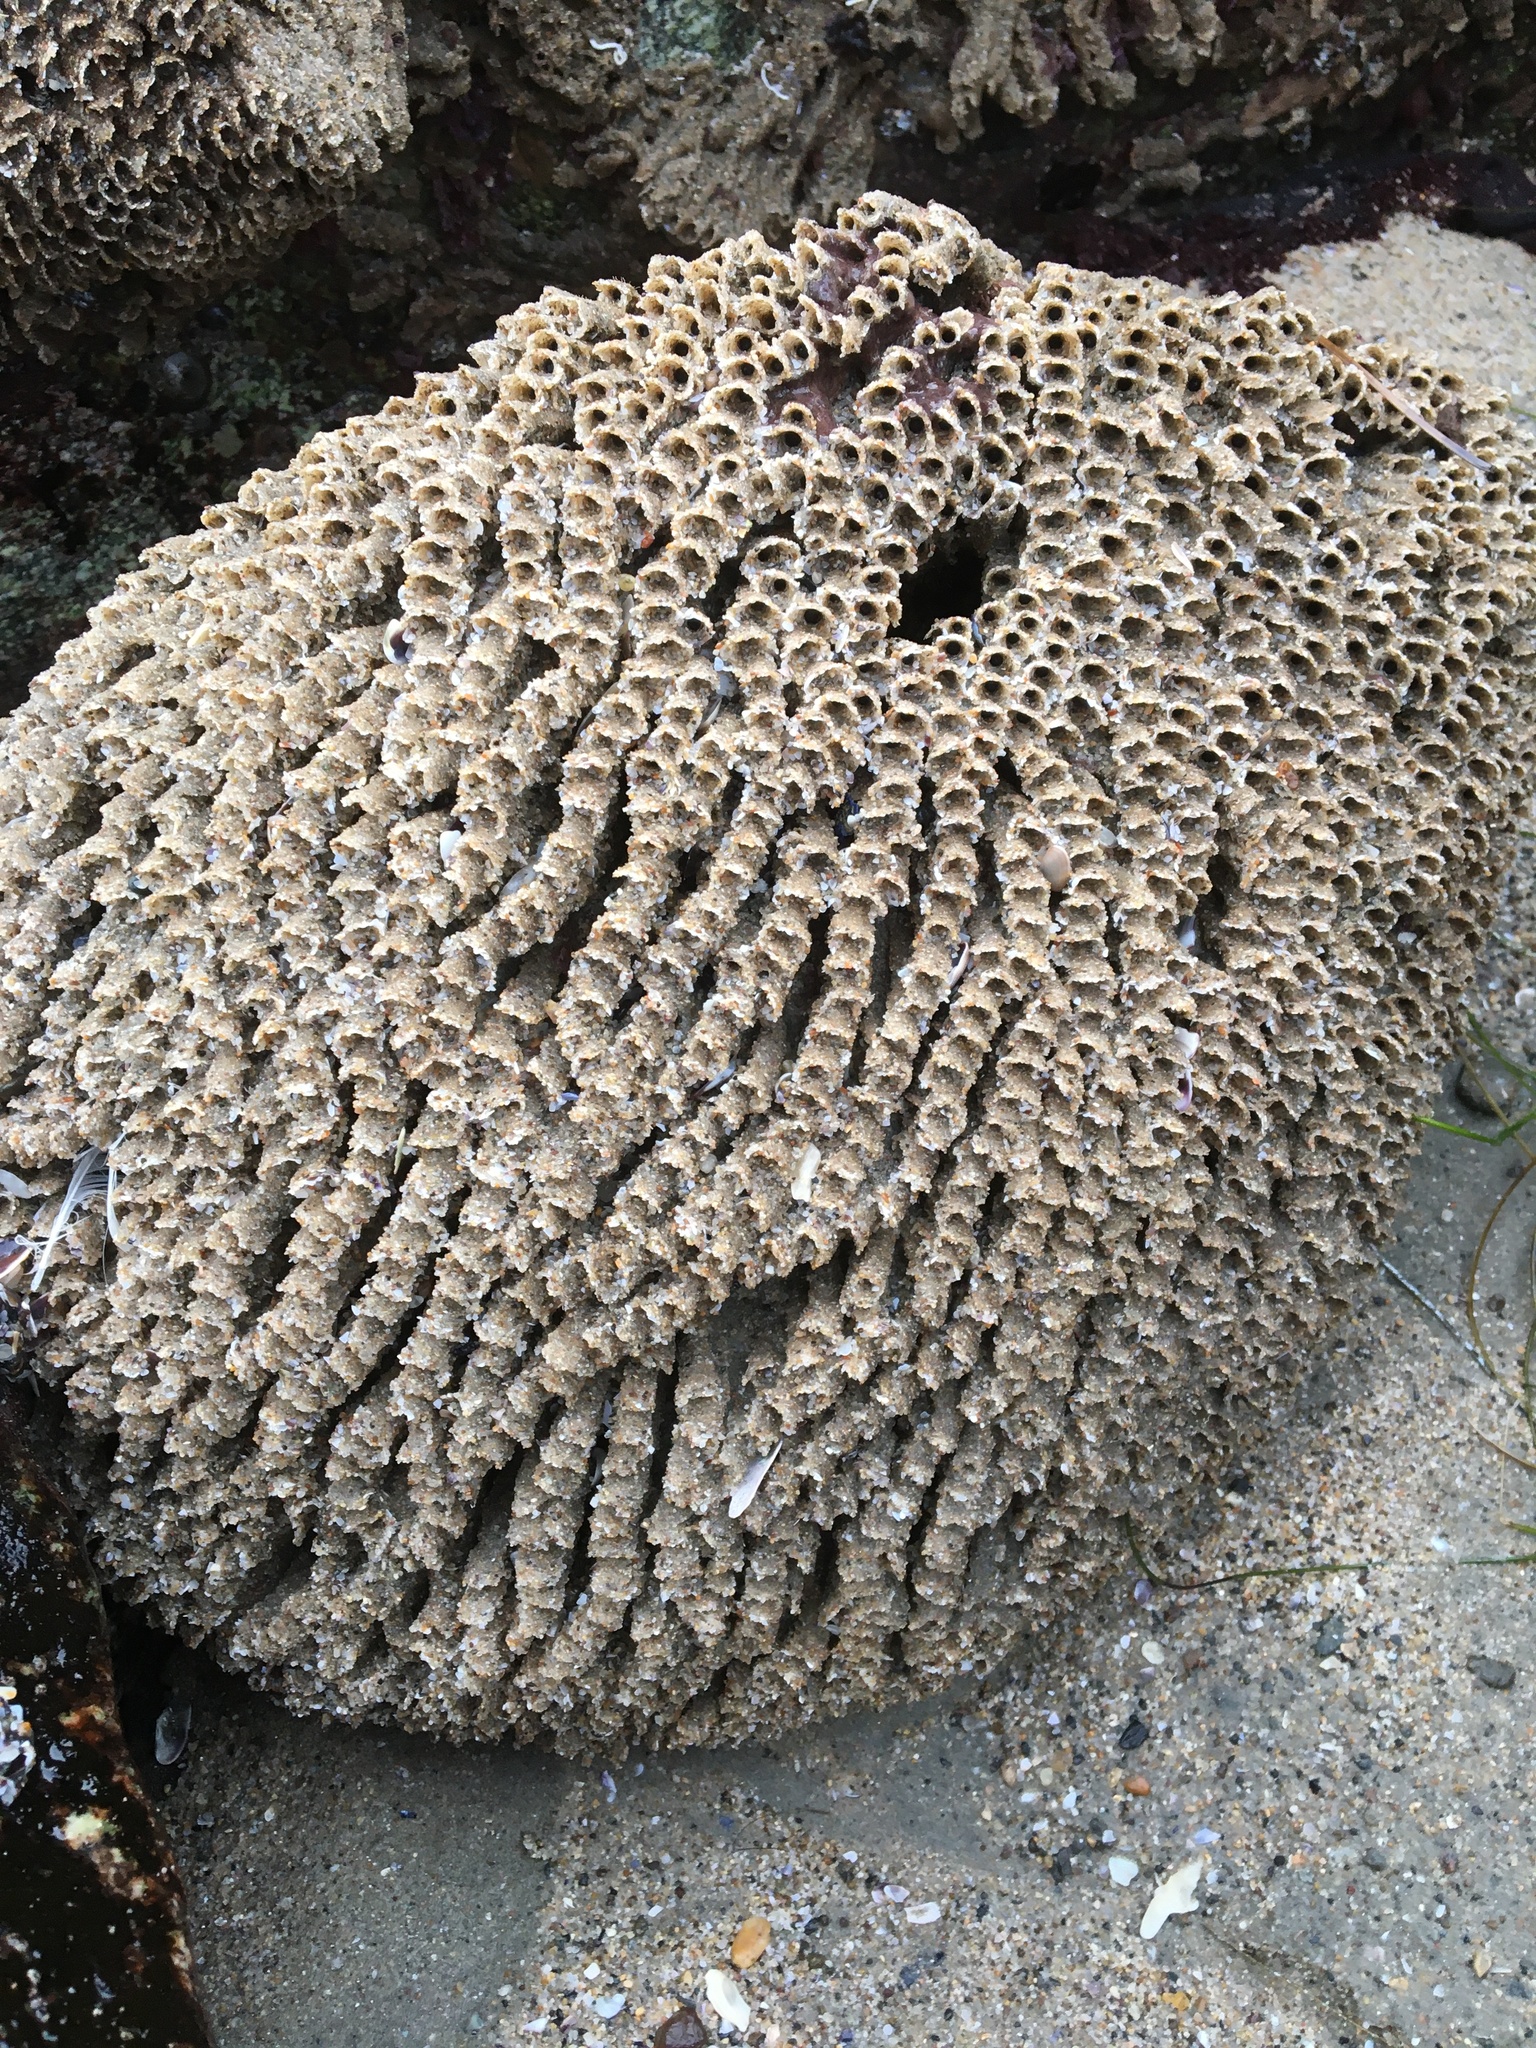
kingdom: Animalia
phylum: Annelida
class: Polychaeta
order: Sabellida
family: Sabellariidae
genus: Phragmatopoma
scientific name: Phragmatopoma californica
